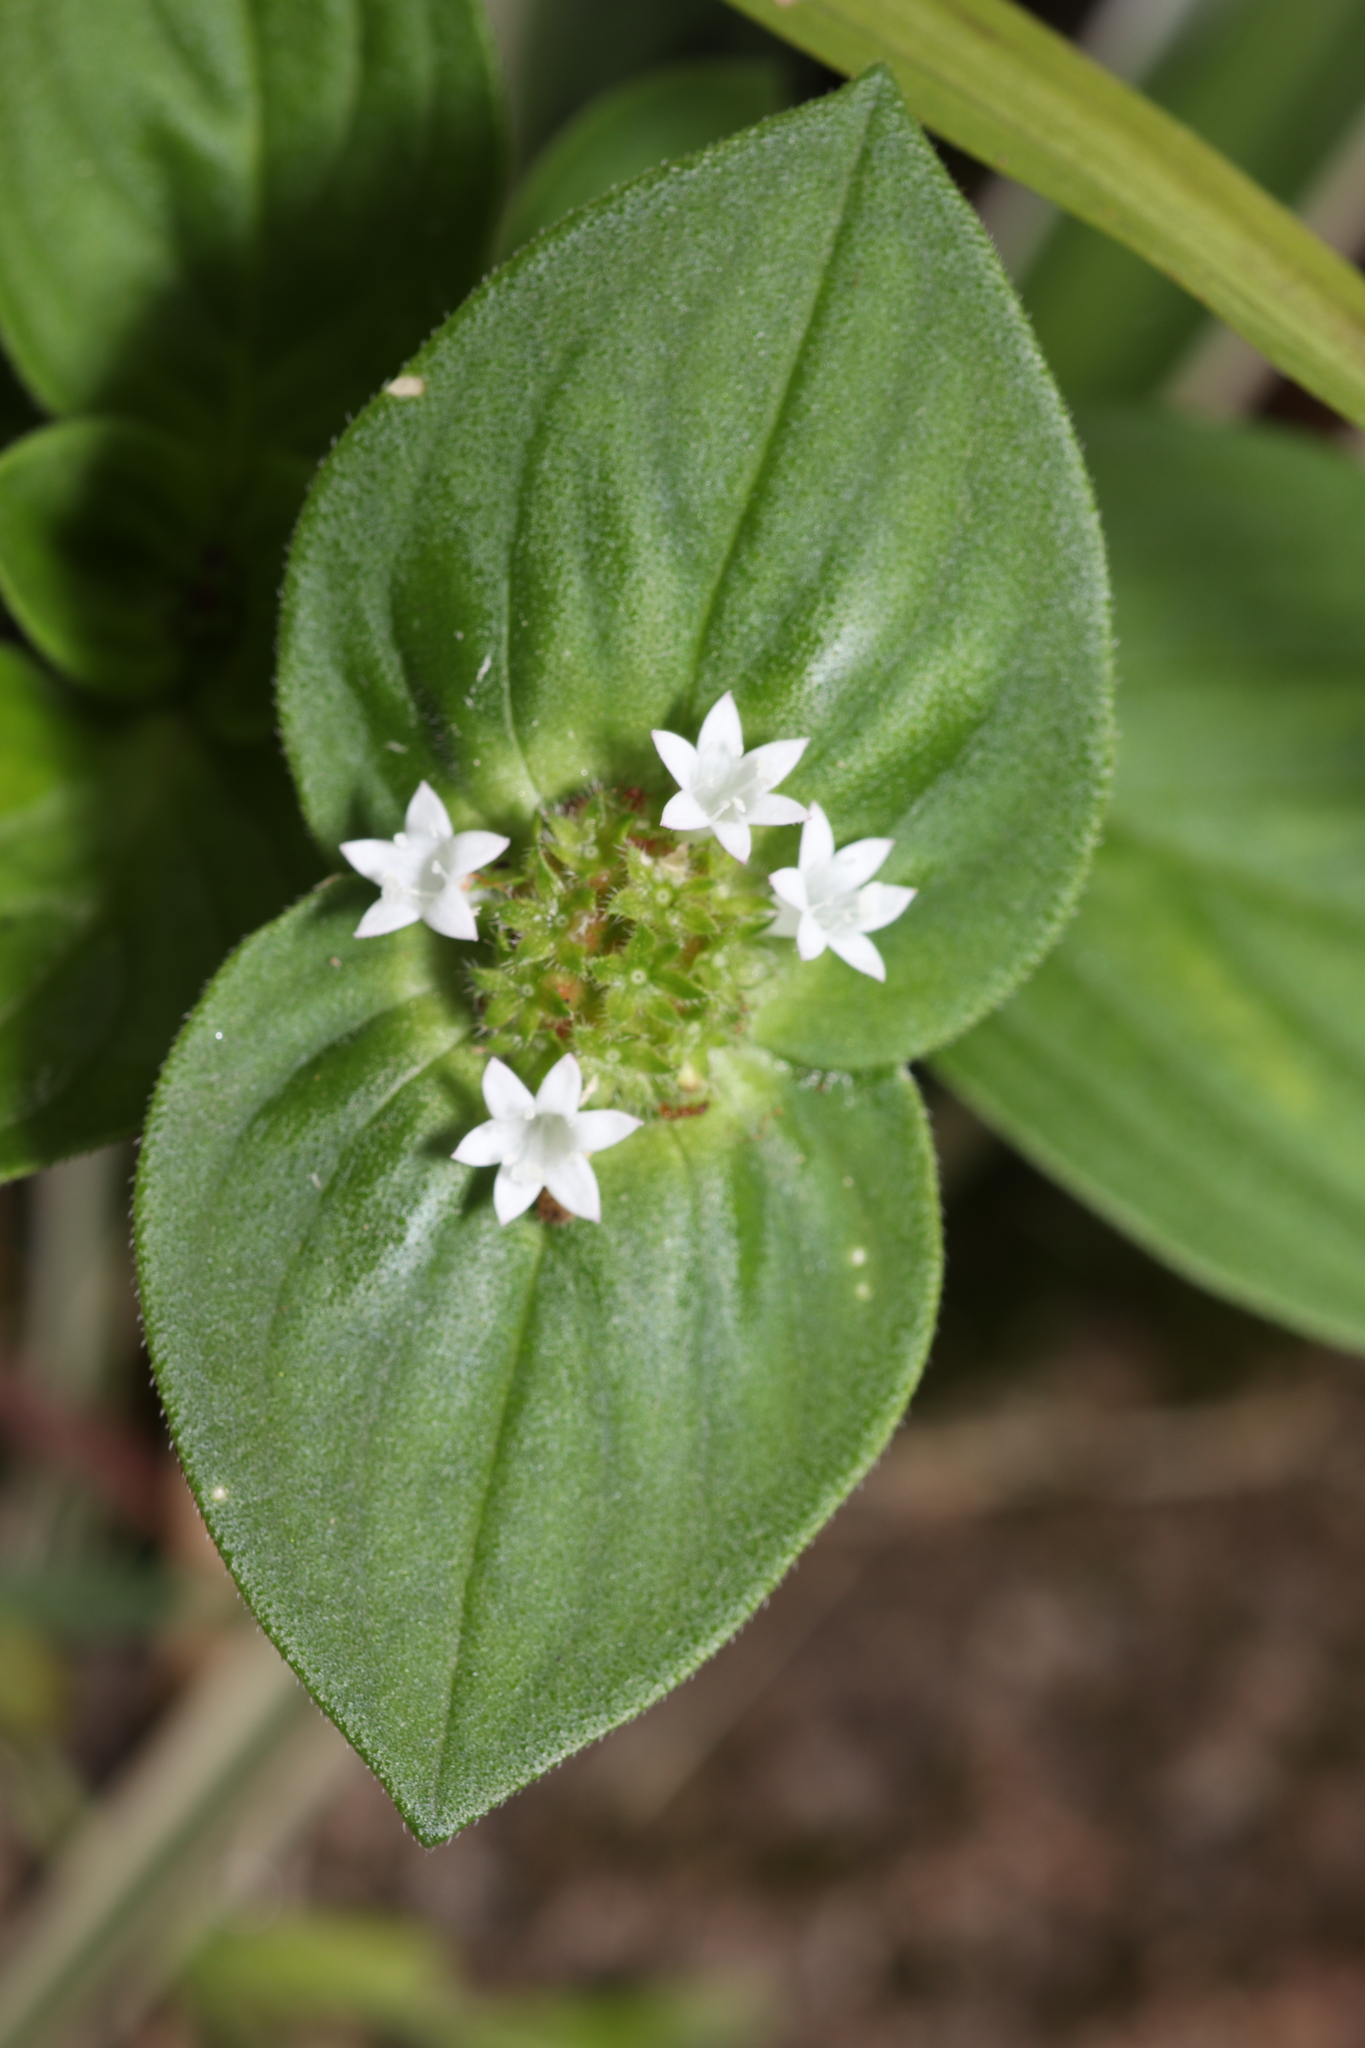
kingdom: Plantae
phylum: Tracheophyta
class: Magnoliopsida
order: Gentianales
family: Rubiaceae
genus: Richardia
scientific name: Richardia brasiliensis
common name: Tropical mexican clover
